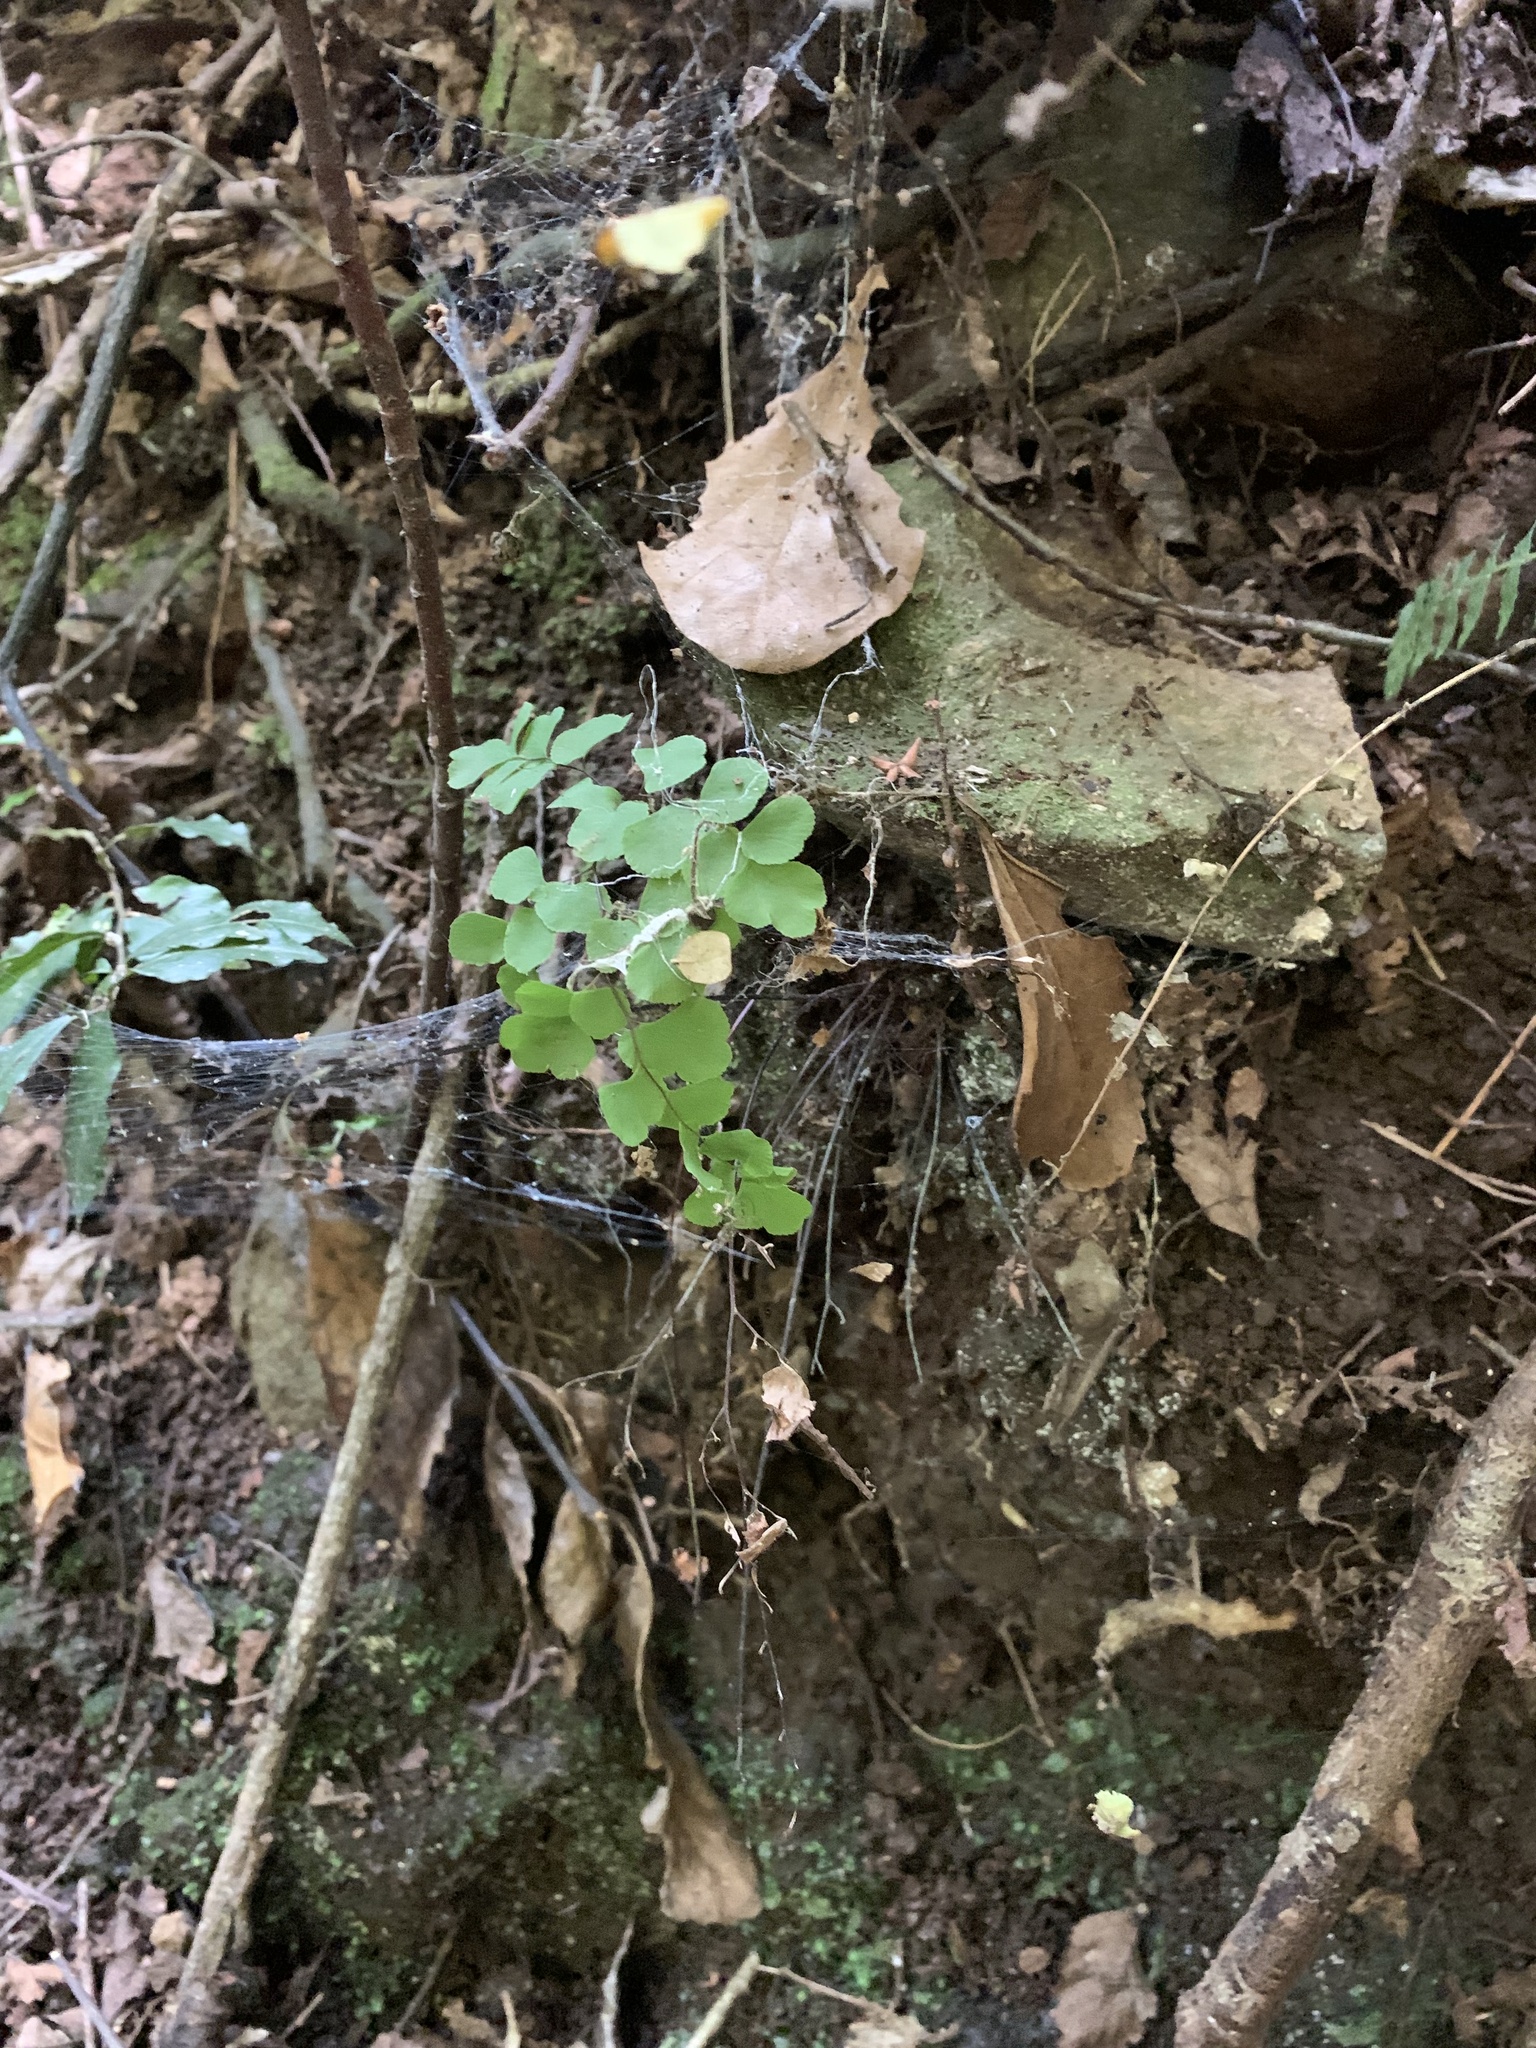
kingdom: Plantae
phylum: Tracheophyta
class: Polypodiopsida
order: Polypodiales
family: Pteridaceae
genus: Adiantum
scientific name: Adiantum chilense
